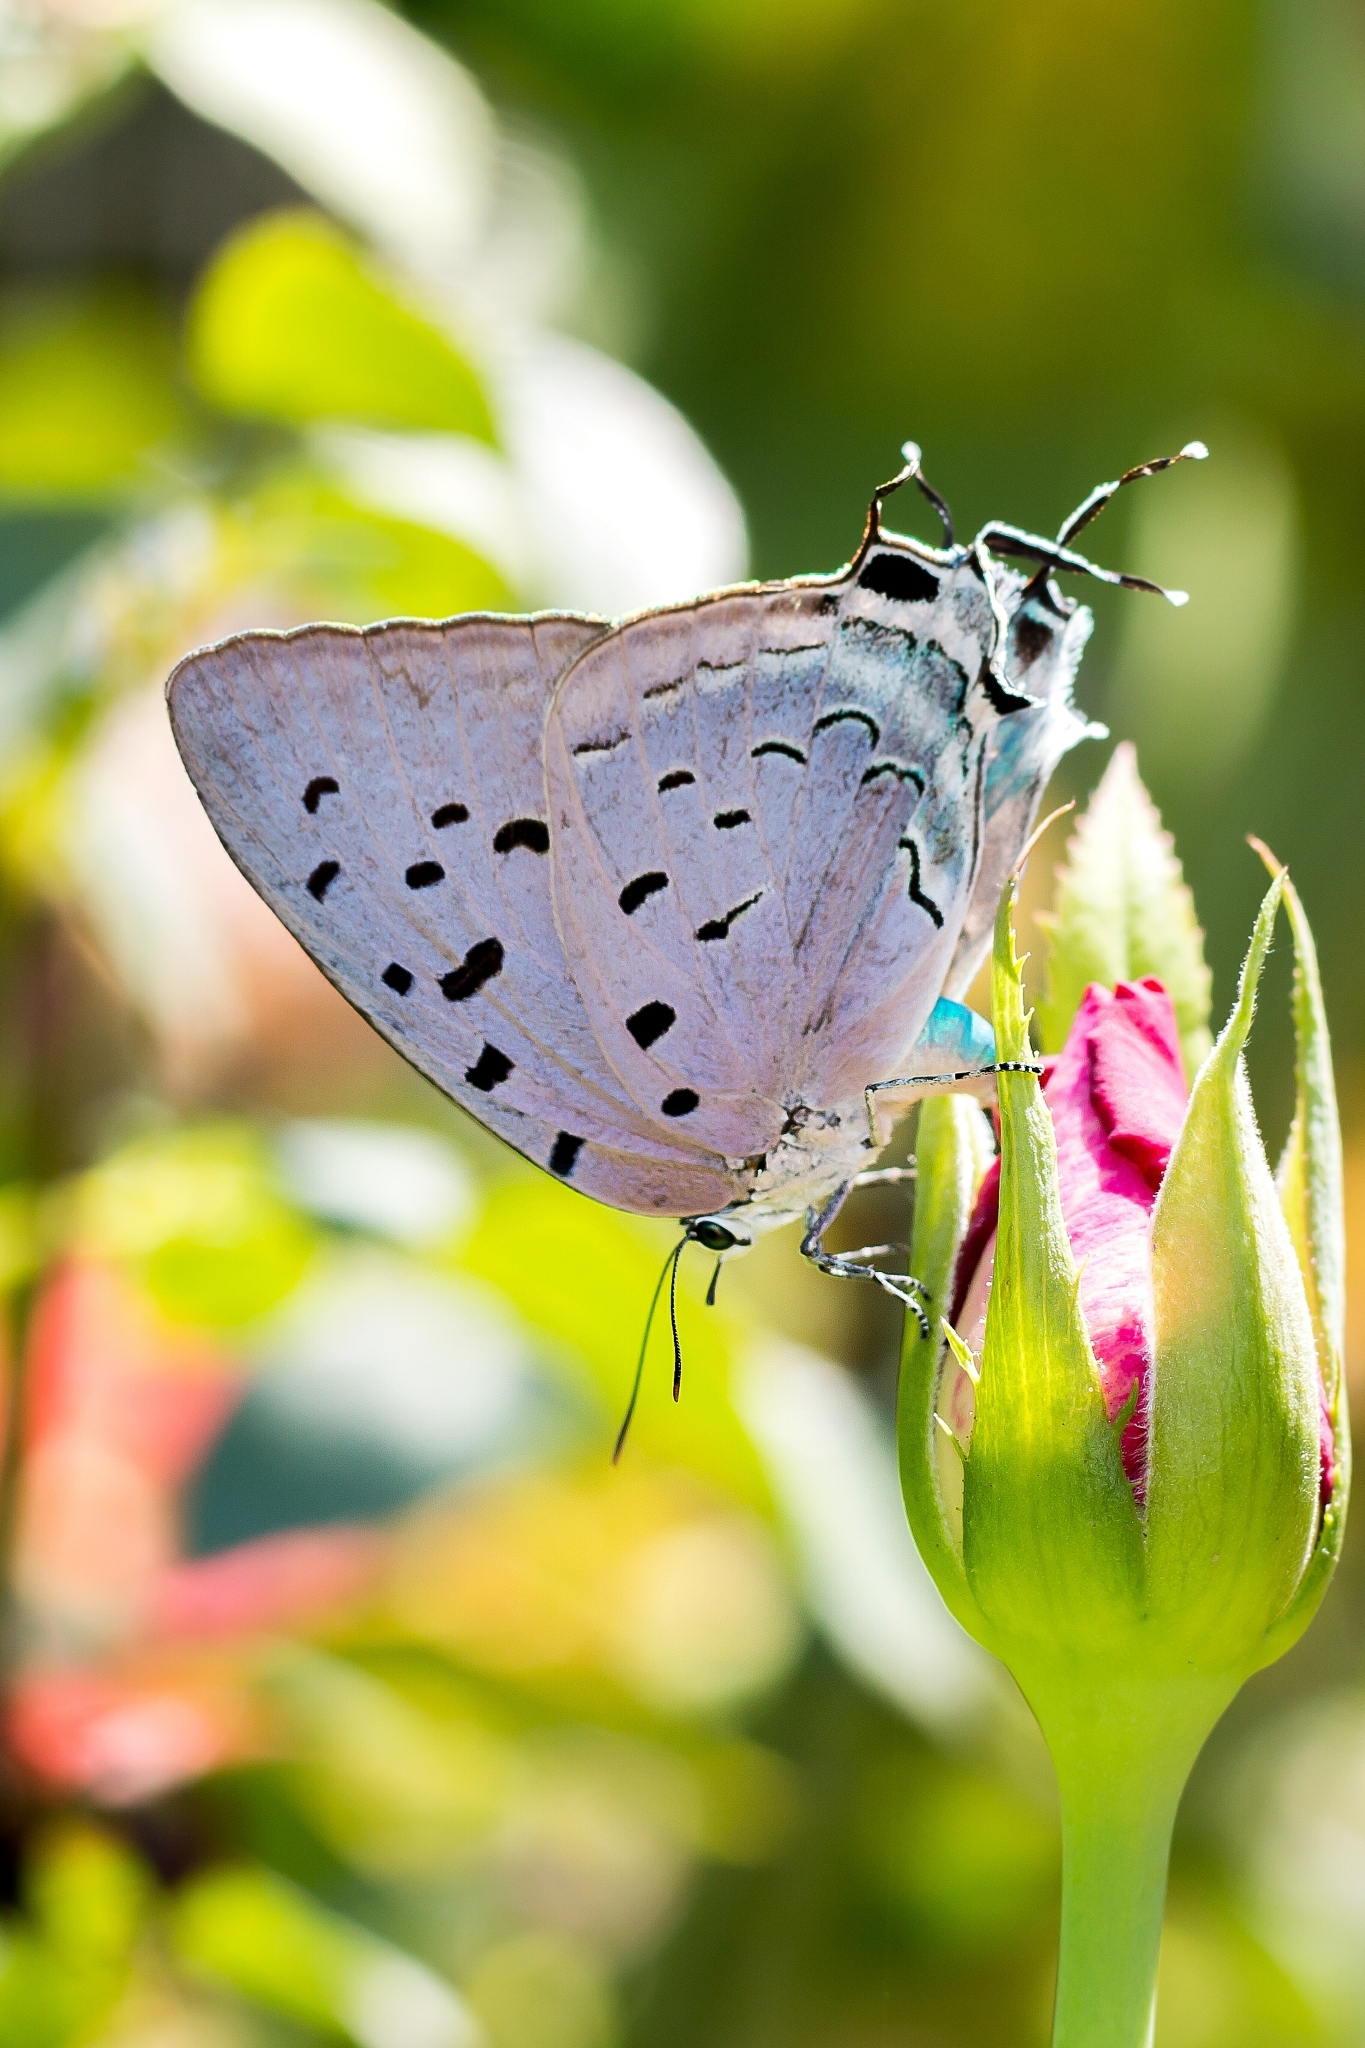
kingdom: Animalia
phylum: Arthropoda
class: Insecta
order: Lepidoptera
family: Lycaenidae
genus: Pseudolycaena
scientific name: Pseudolycaena damo
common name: Sky-blue hairstreak
